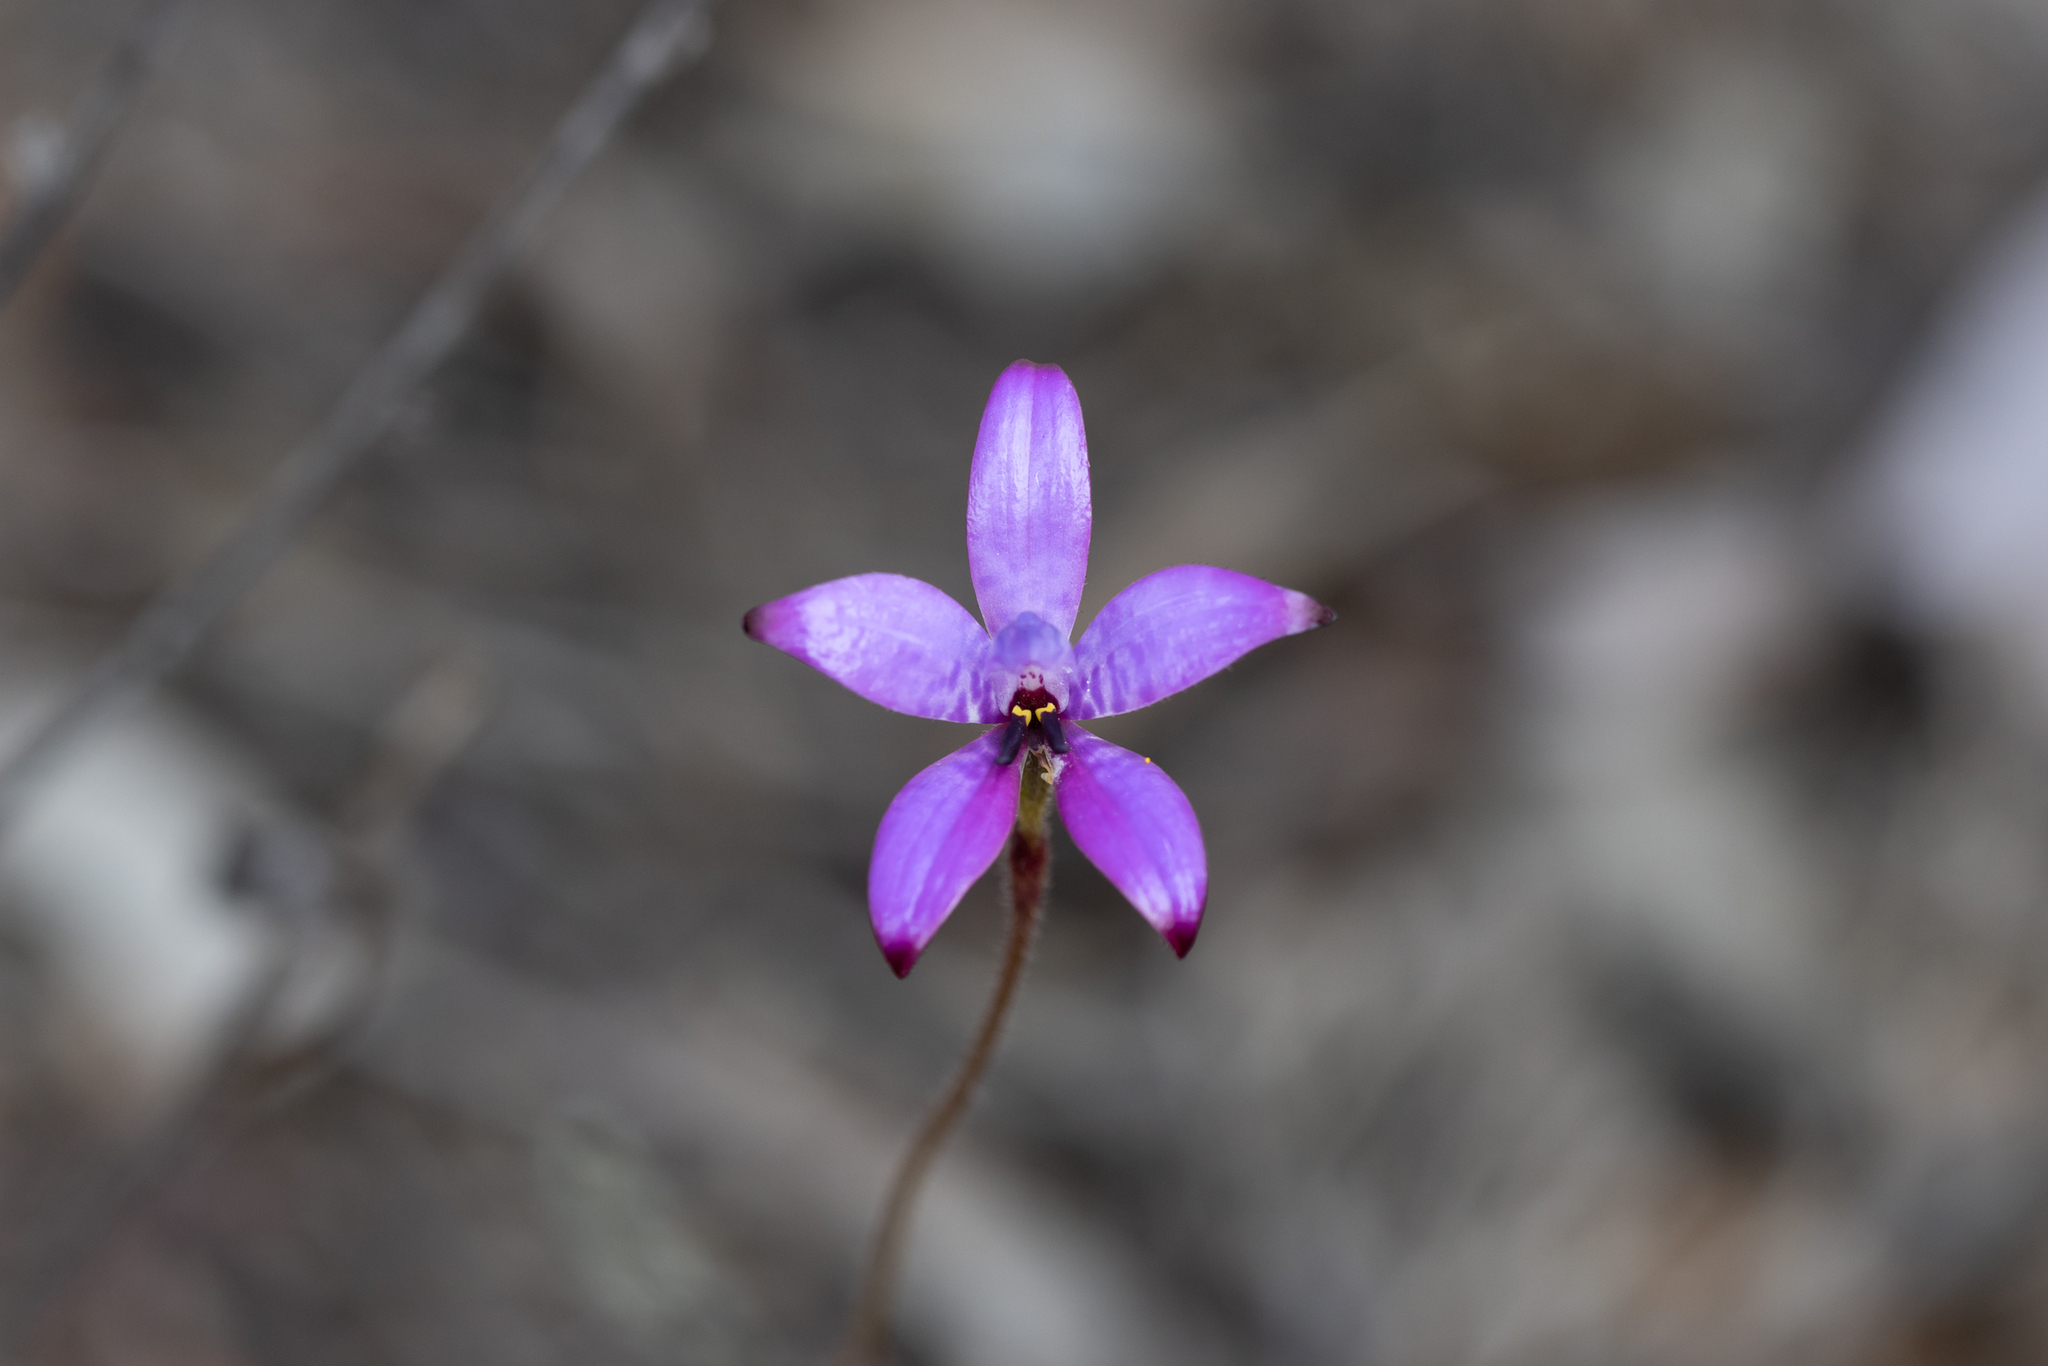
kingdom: Plantae
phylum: Tracheophyta
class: Liliopsida
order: Asparagales
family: Orchidaceae
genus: Caladenia
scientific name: Caladenia brunonis
